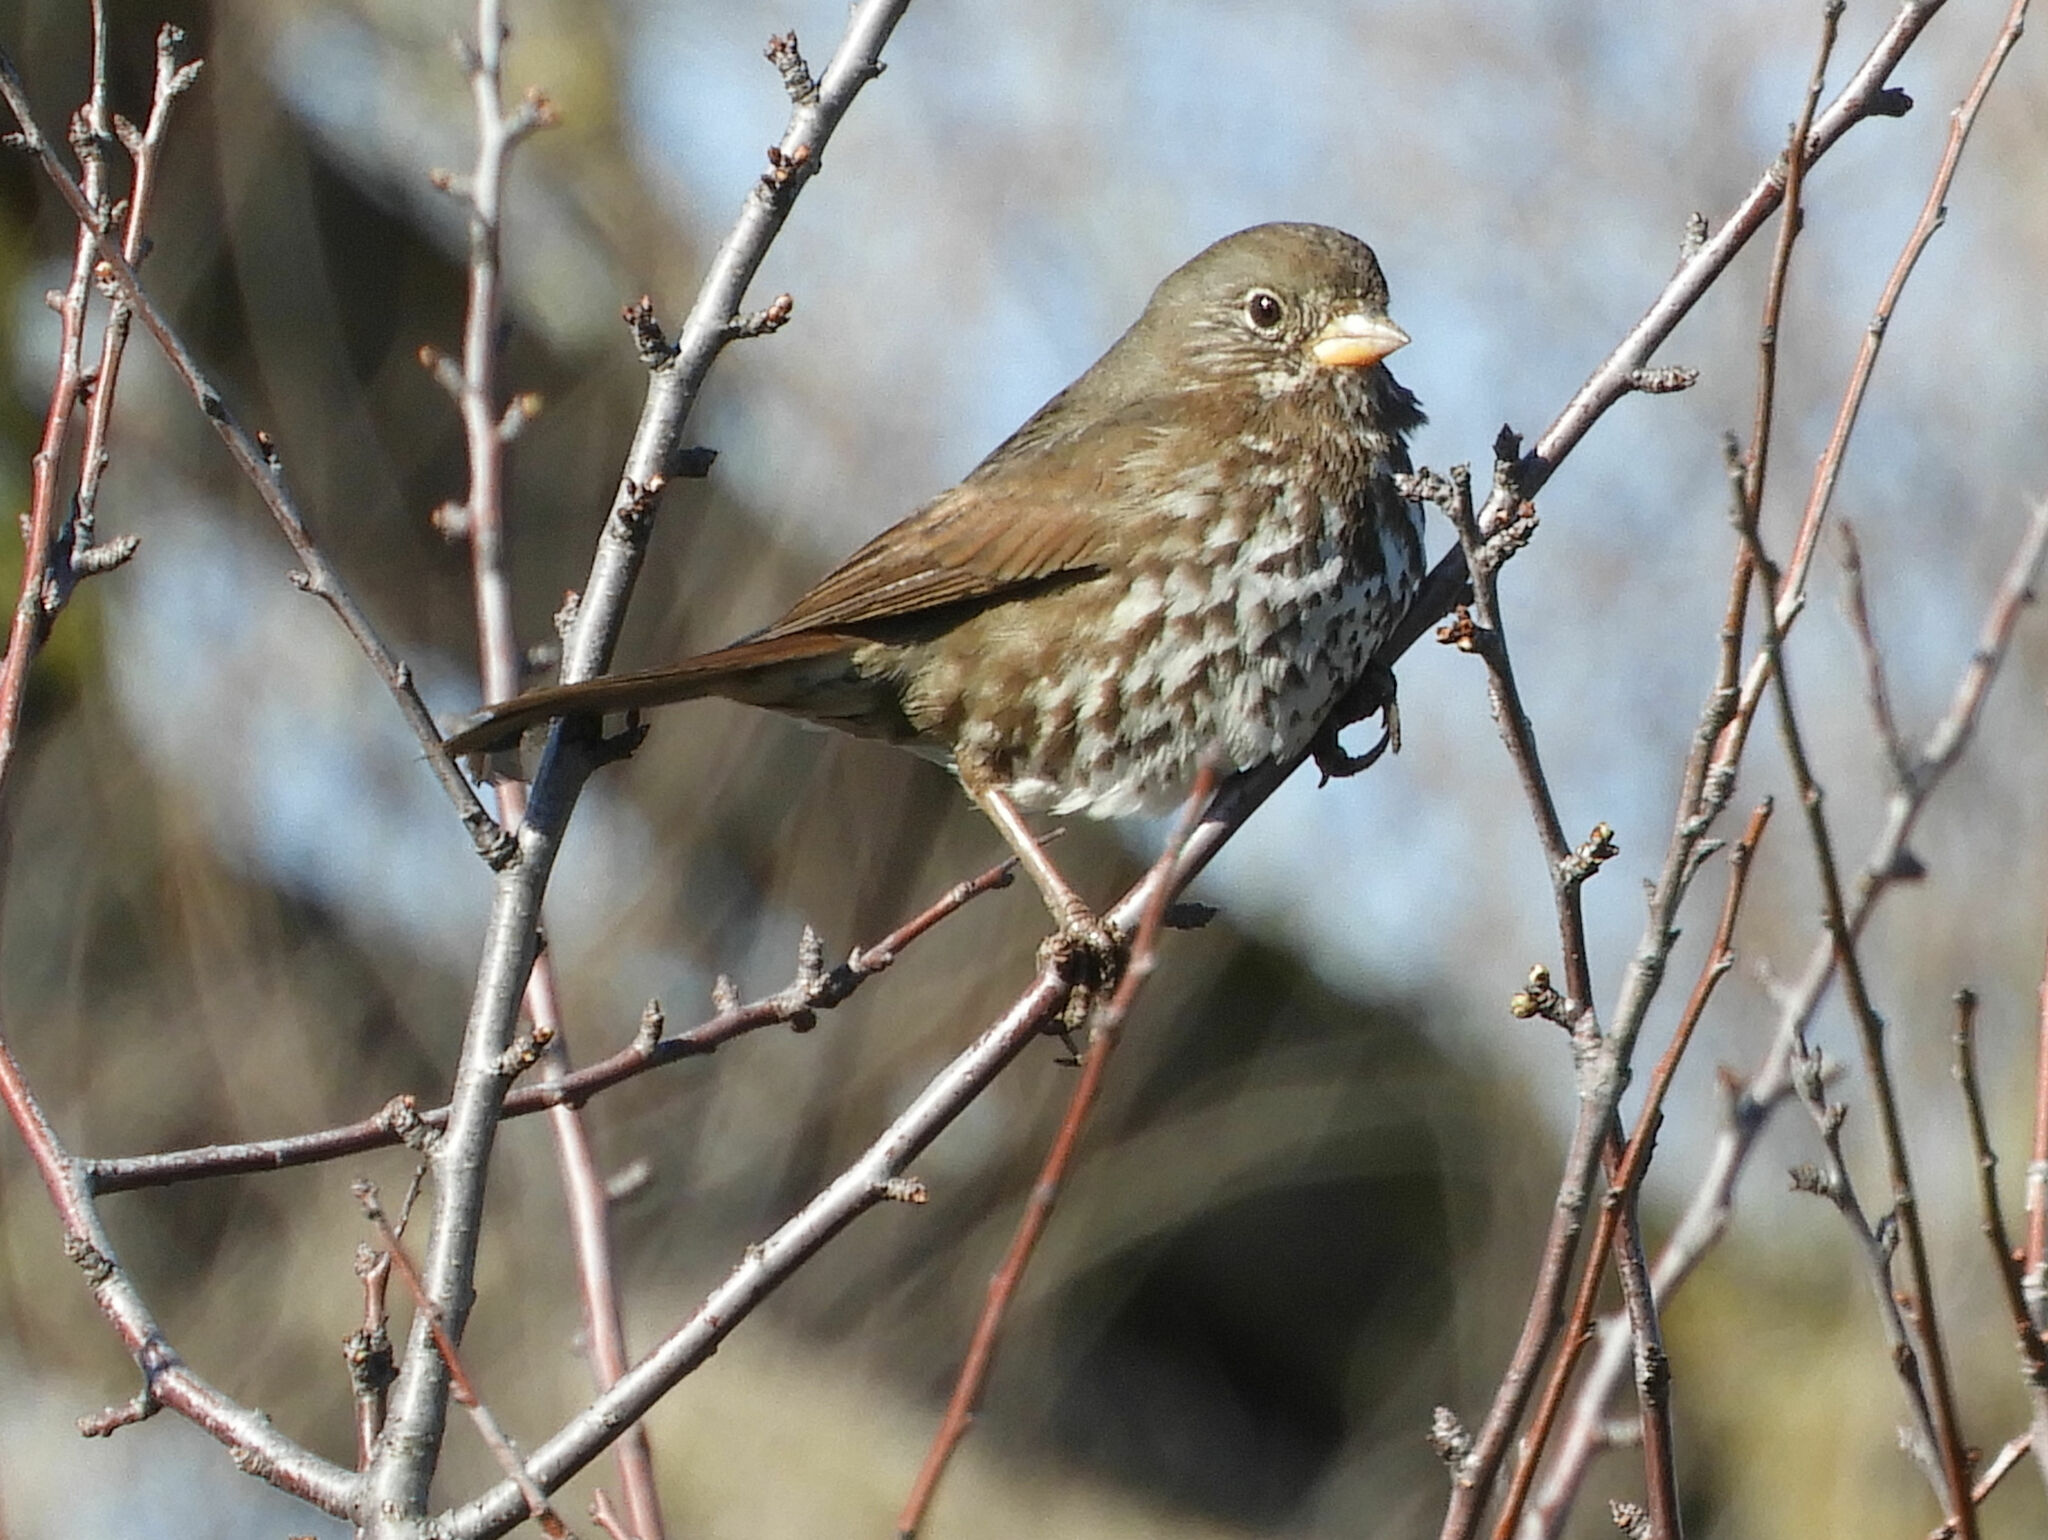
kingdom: Animalia
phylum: Chordata
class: Aves
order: Passeriformes
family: Passerellidae
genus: Passerella
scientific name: Passerella iliaca
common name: Fox sparrow
